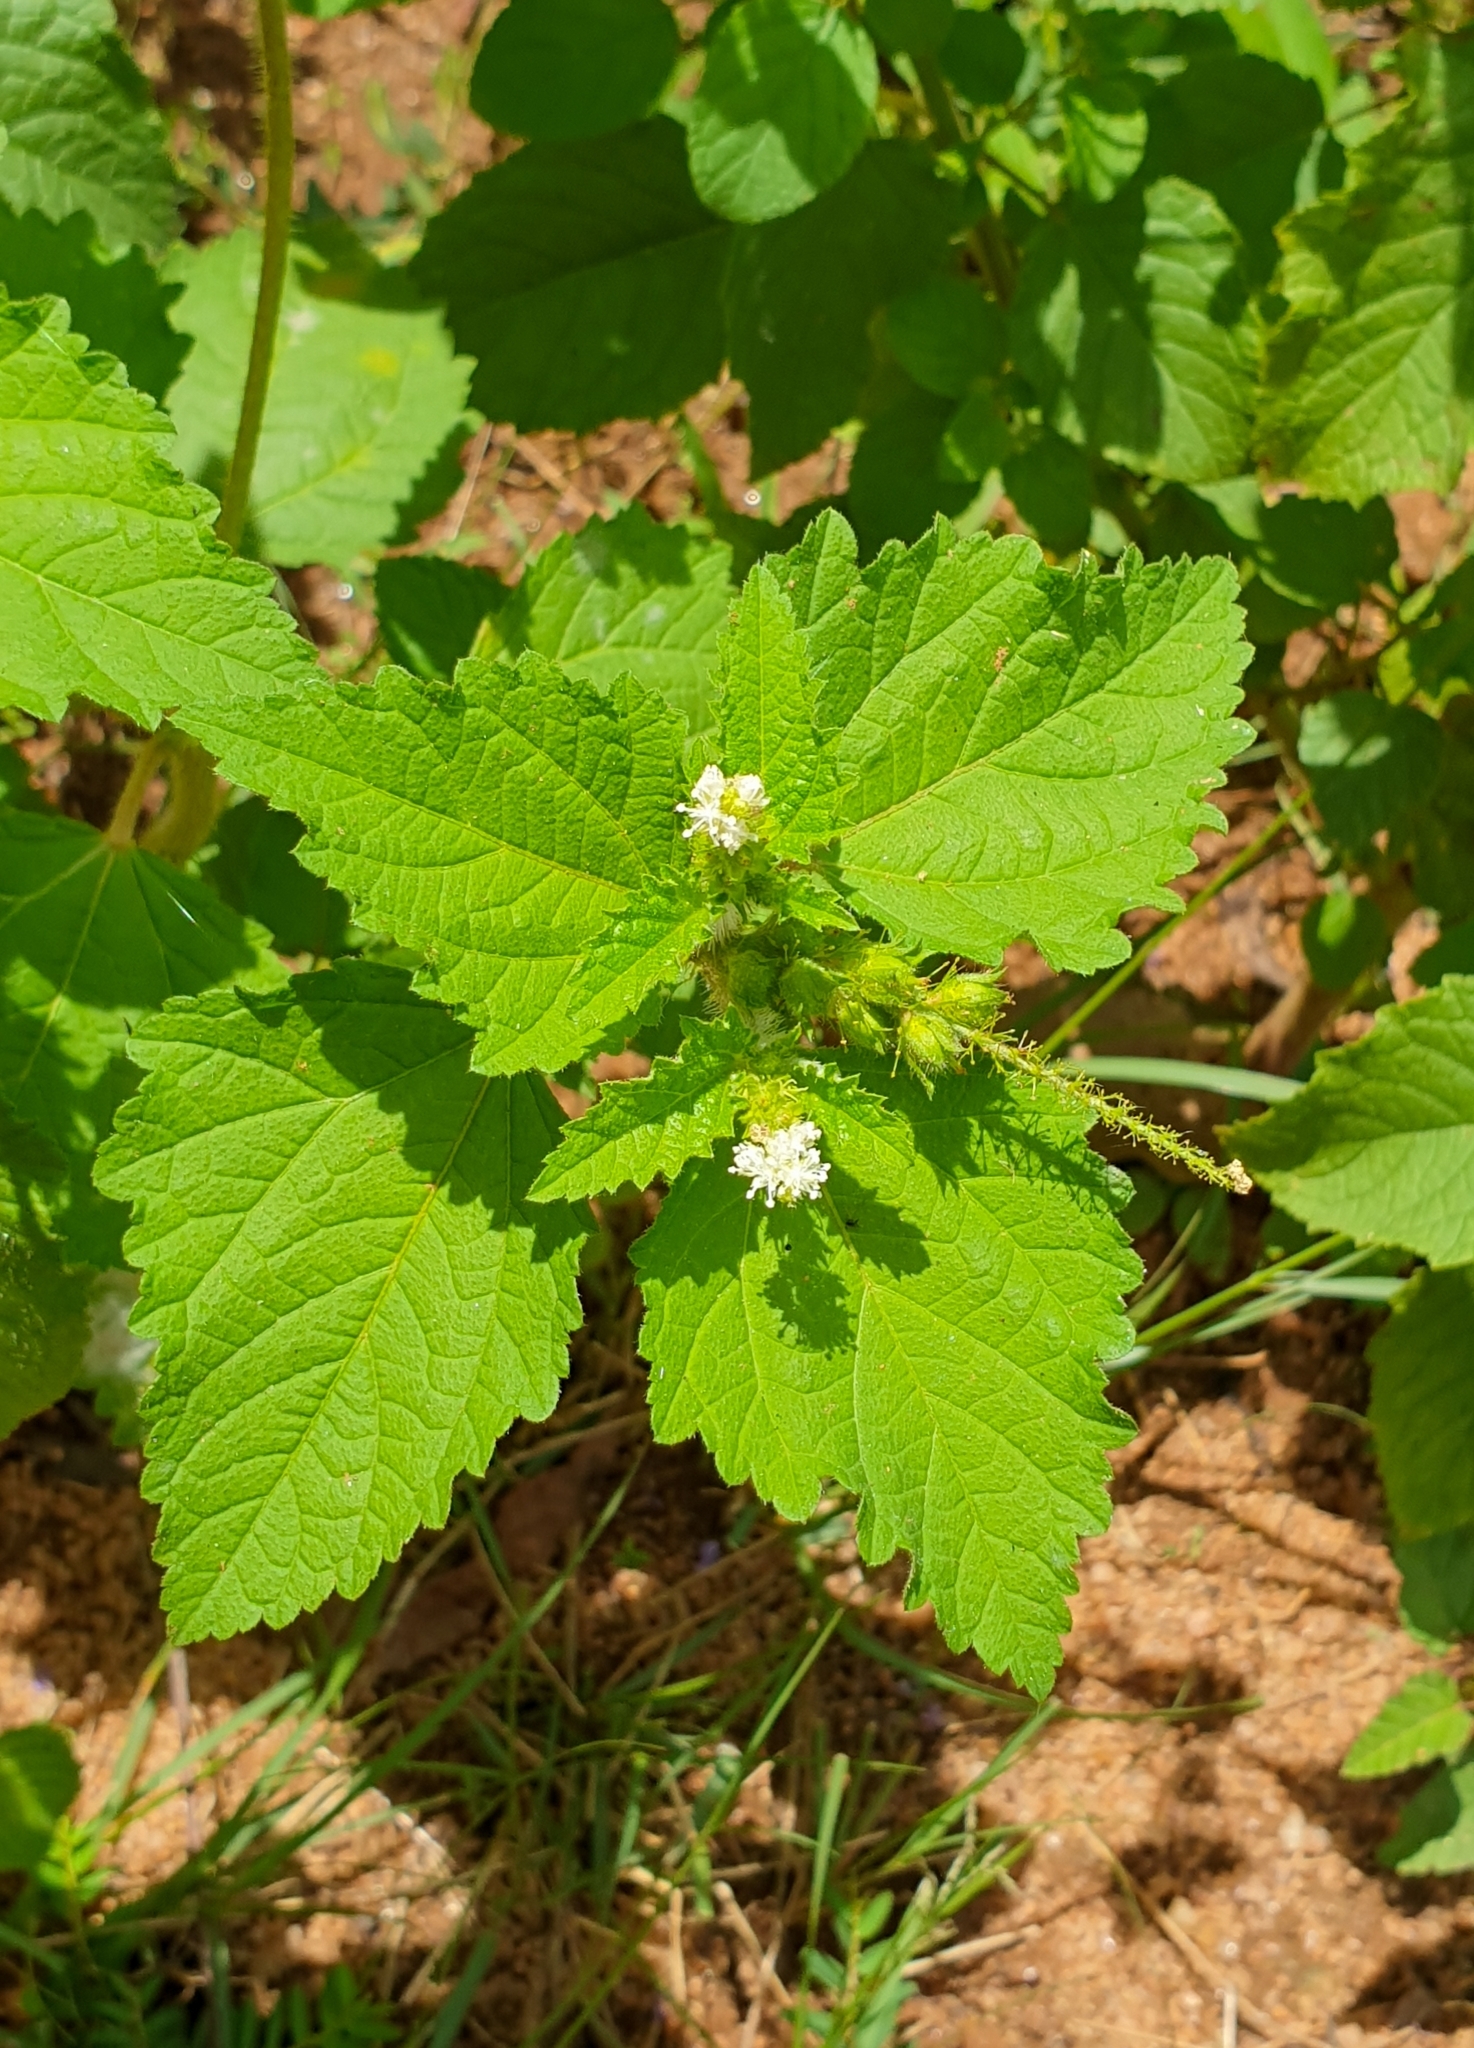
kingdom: Plantae
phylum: Tracheophyta
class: Magnoliopsida
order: Malpighiales
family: Euphorbiaceae
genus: Croton
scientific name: Croton hirtus
